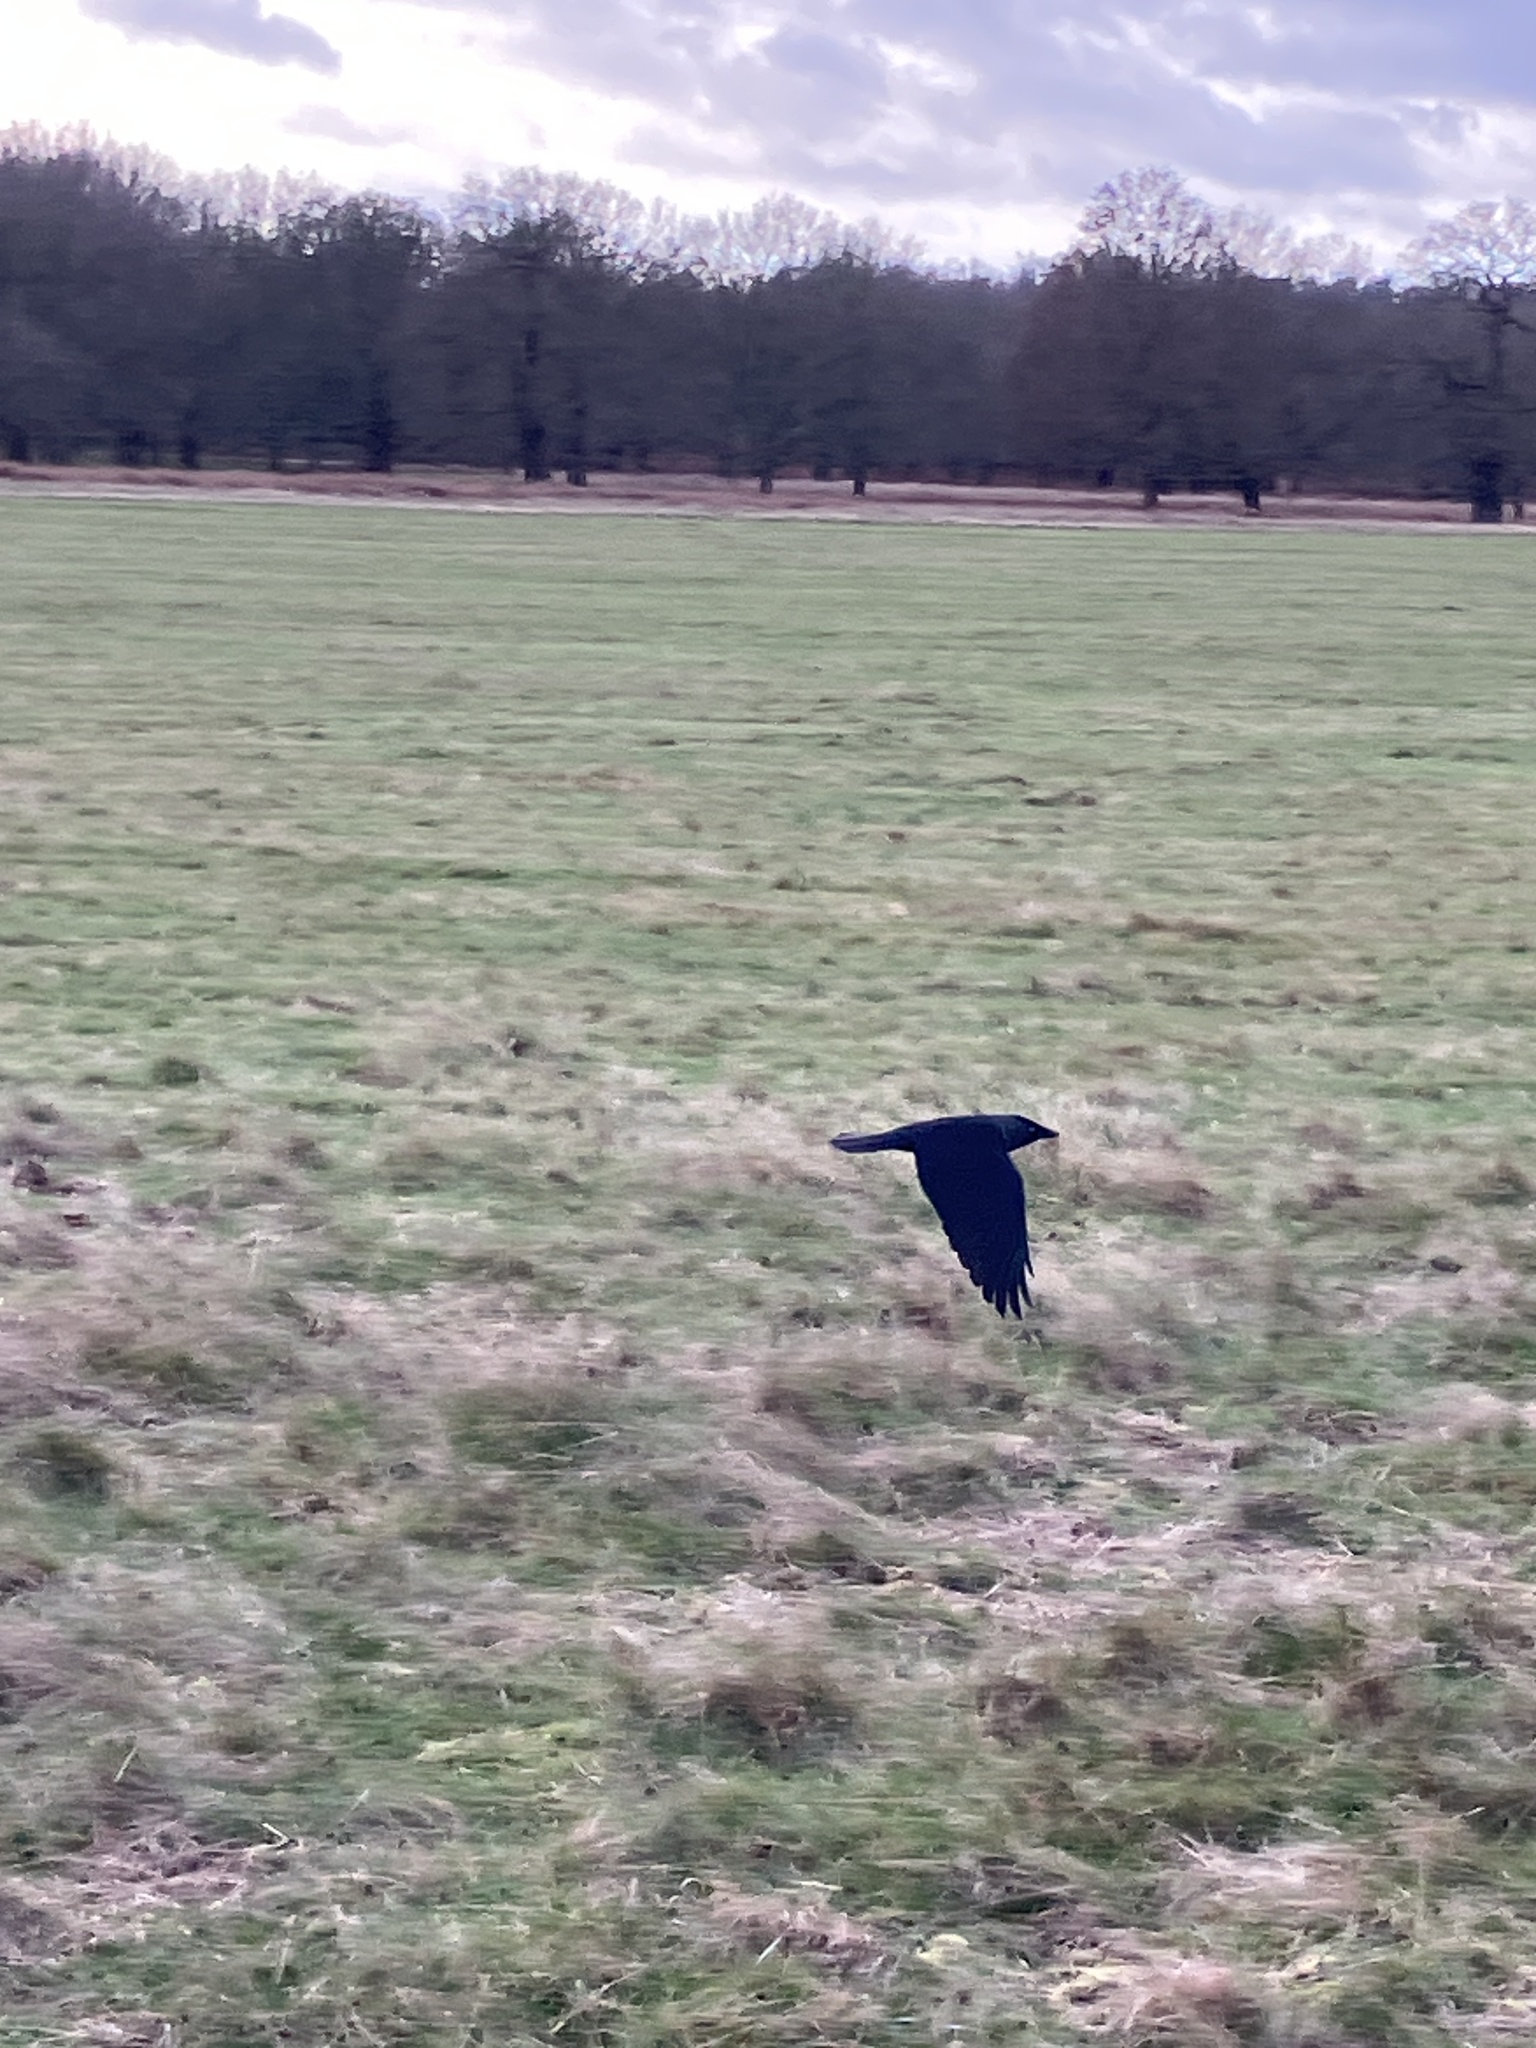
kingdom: Animalia
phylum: Chordata
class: Aves
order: Passeriformes
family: Corvidae
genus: Coloeus
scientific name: Coloeus monedula
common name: Western jackdaw
